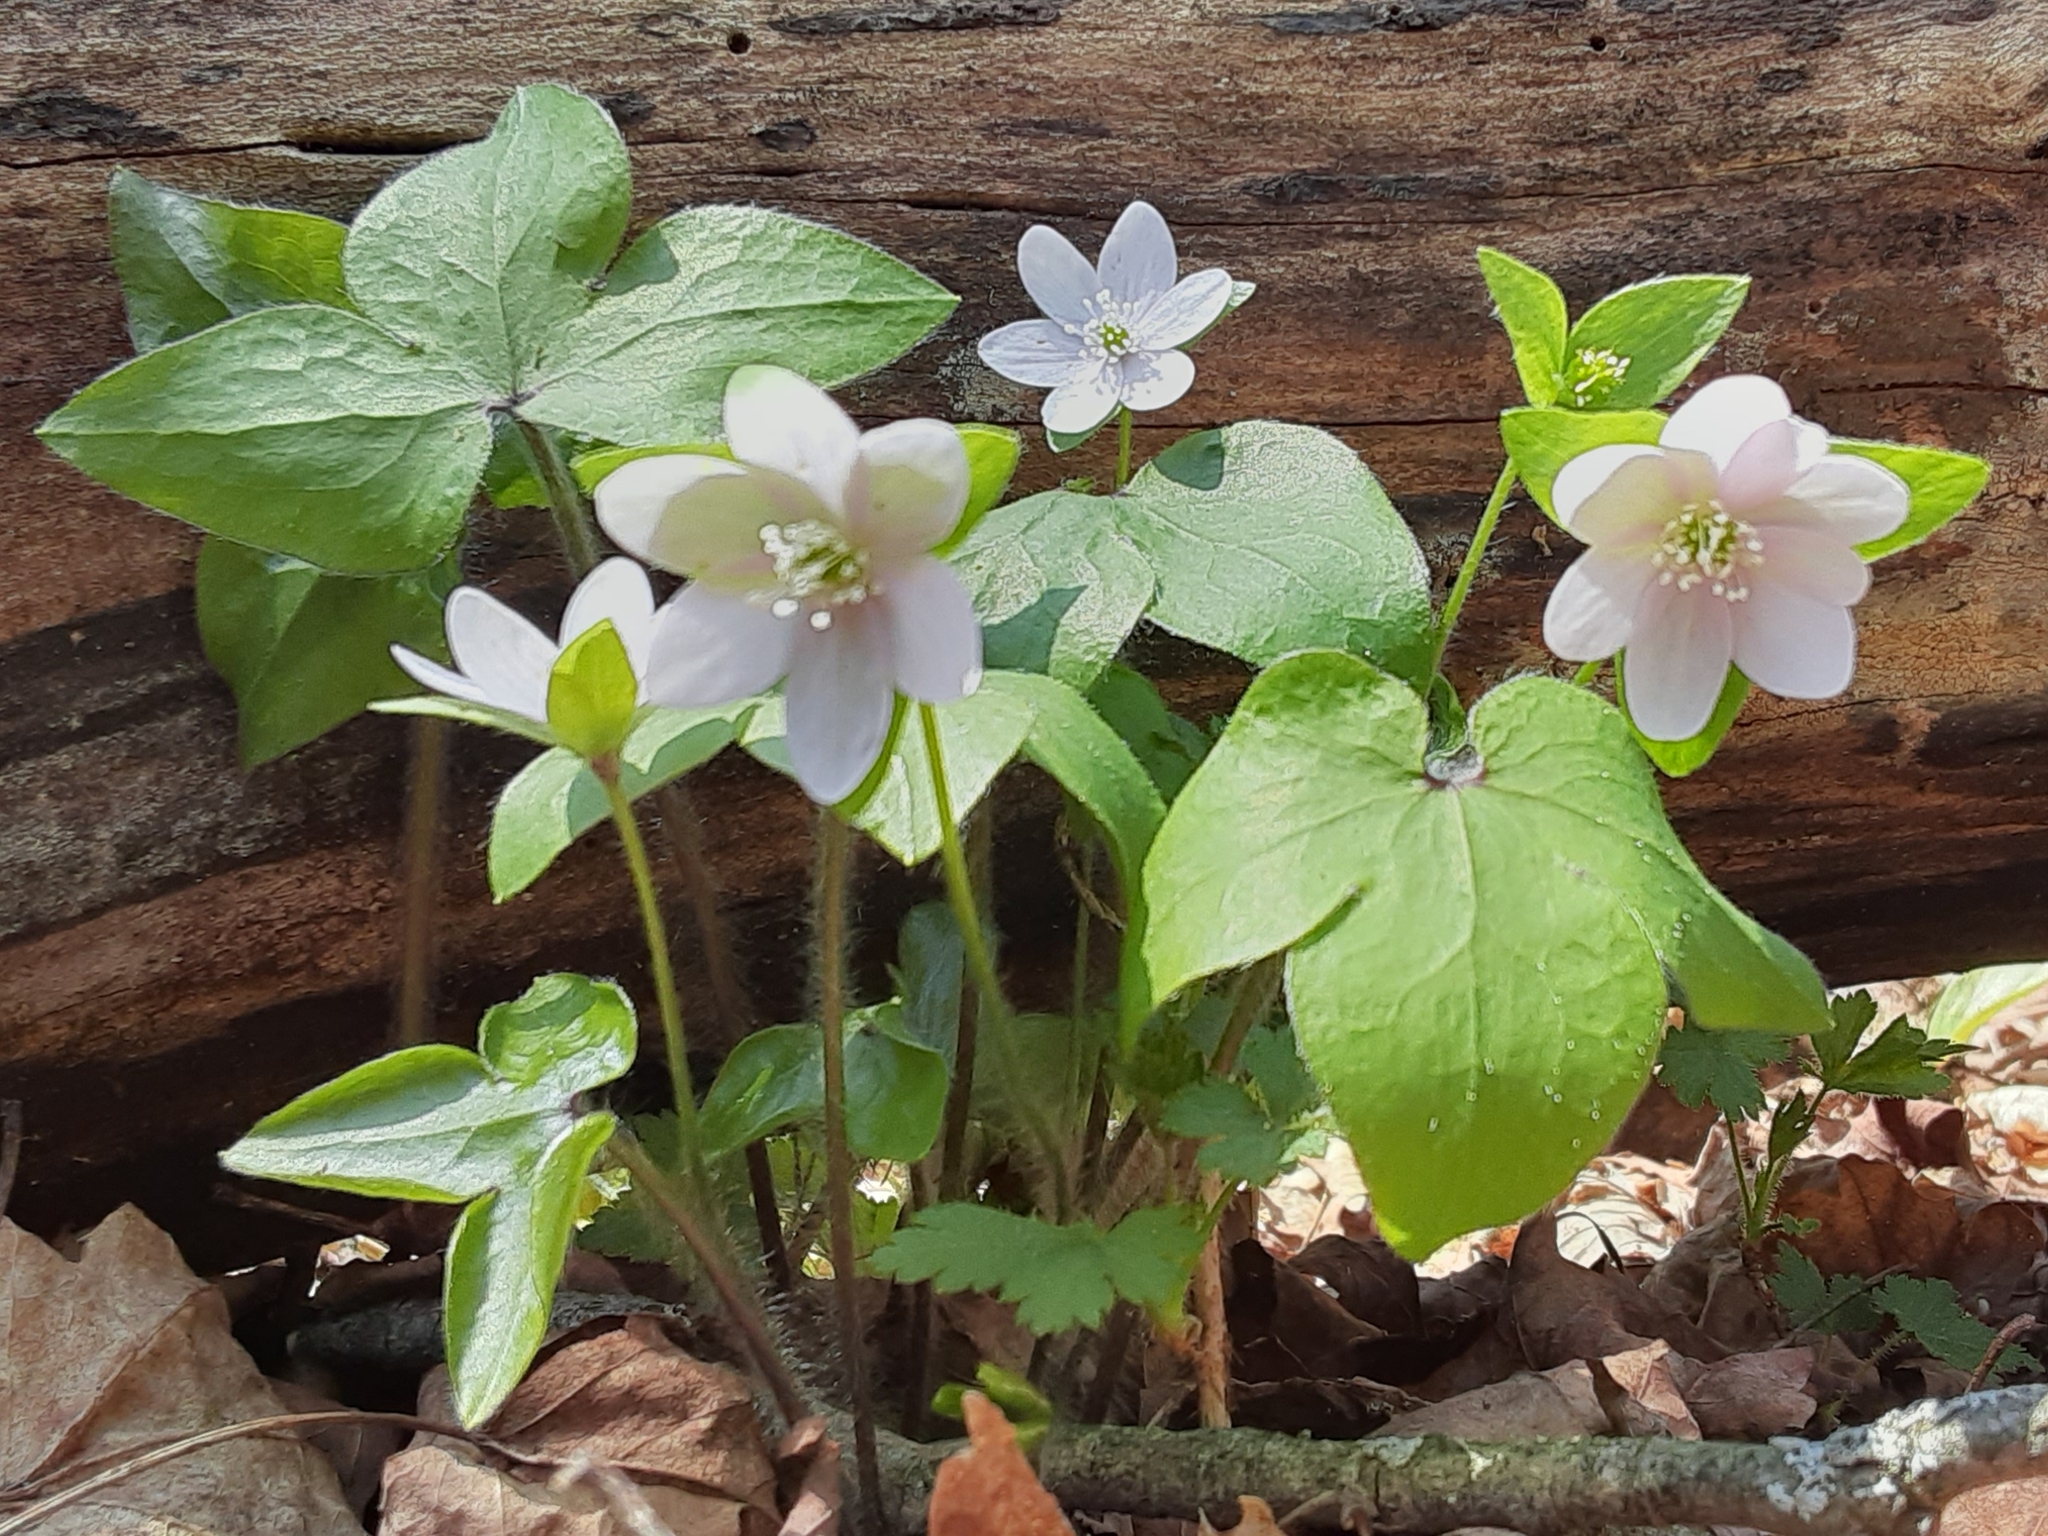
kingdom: Plantae
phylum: Tracheophyta
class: Magnoliopsida
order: Ranunculales
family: Ranunculaceae
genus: Hepatica
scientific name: Hepatica acutiloba
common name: Sharp-lobed hepatica
